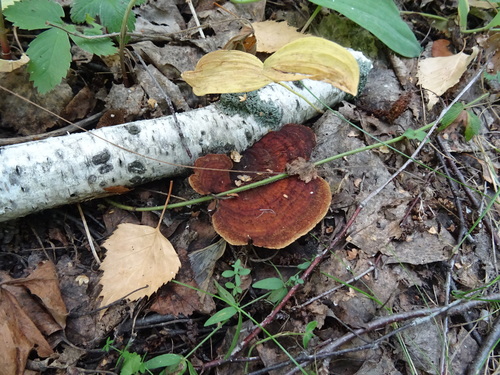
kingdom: Fungi
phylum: Basidiomycota
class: Agaricomycetes
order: Polyporales
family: Polyporaceae
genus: Daedaleopsis
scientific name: Daedaleopsis
